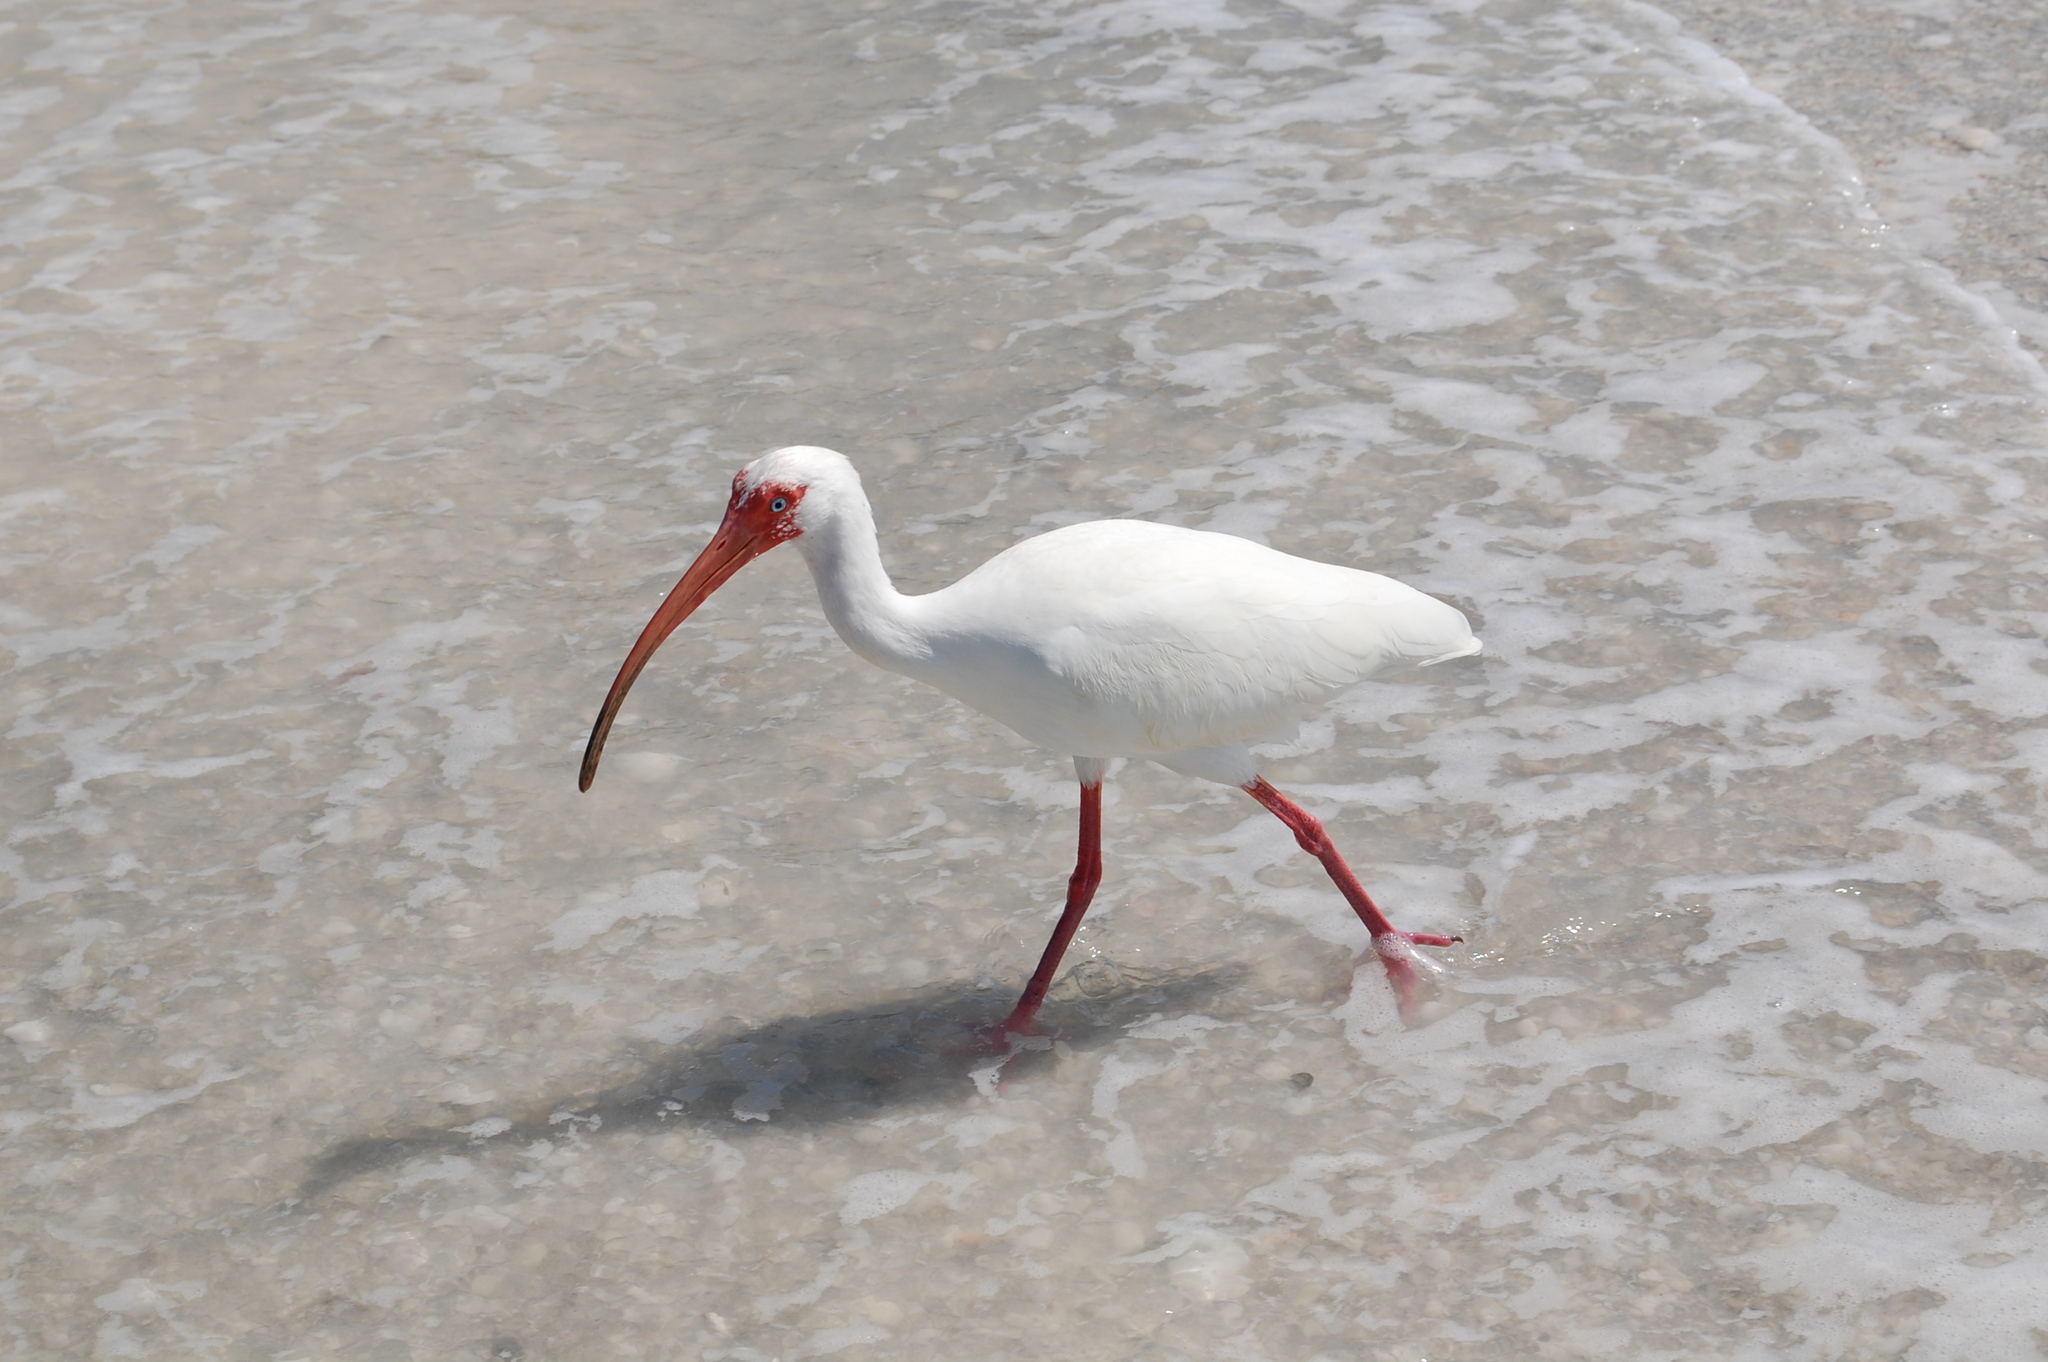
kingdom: Animalia
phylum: Chordata
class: Aves
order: Pelecaniformes
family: Threskiornithidae
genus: Eudocimus
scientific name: Eudocimus albus
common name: White ibis
